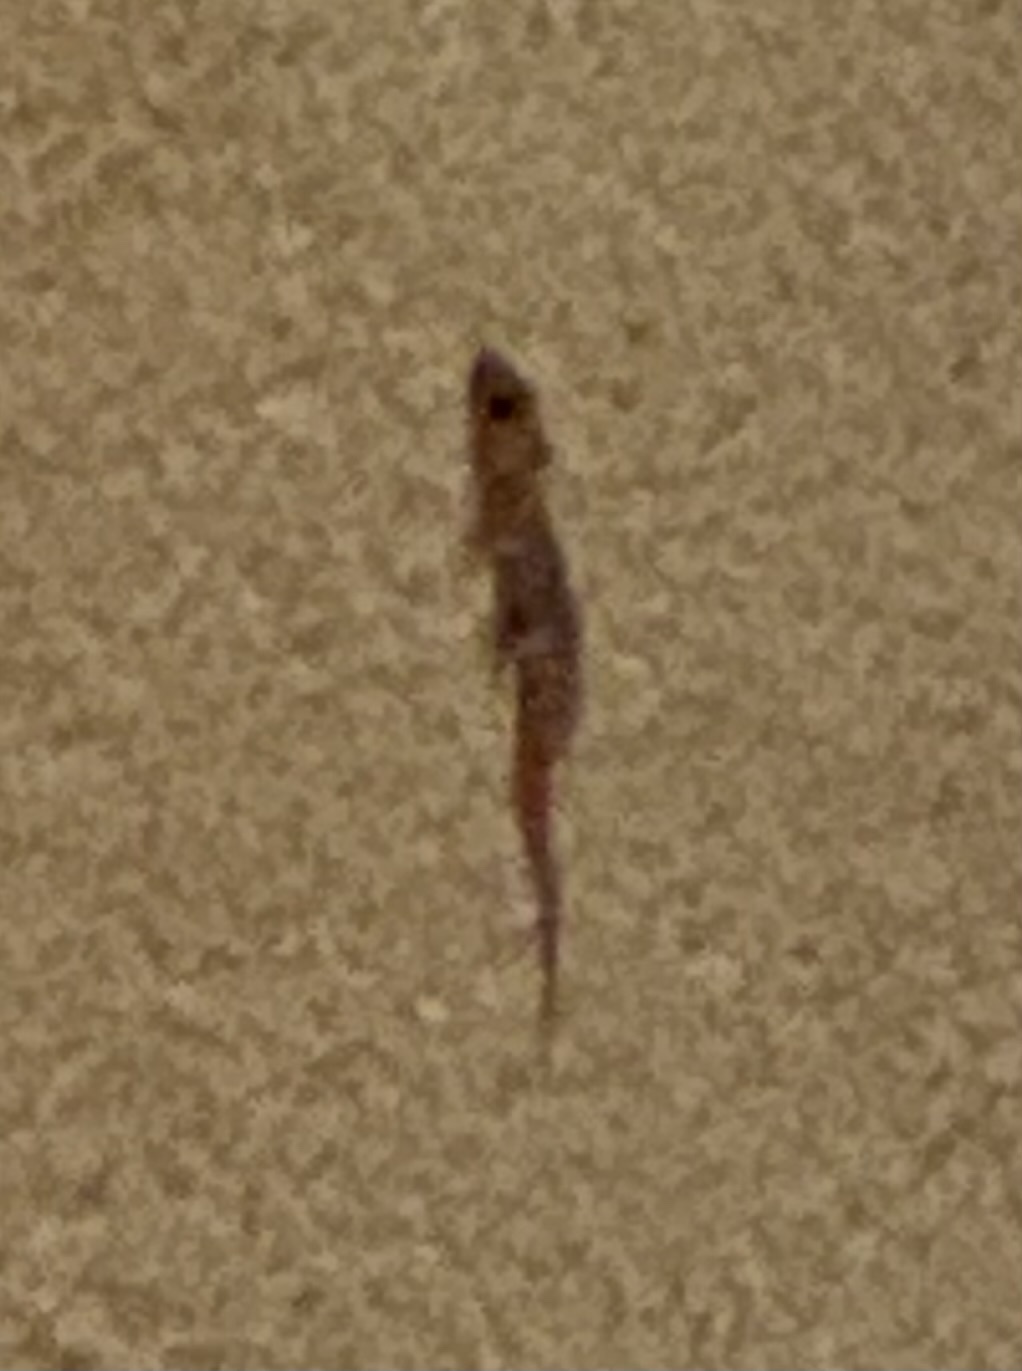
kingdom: Animalia
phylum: Chordata
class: Squamata
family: Gekkonidae
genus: Hemidactylus
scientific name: Hemidactylus turcicus
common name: Turkish gecko
